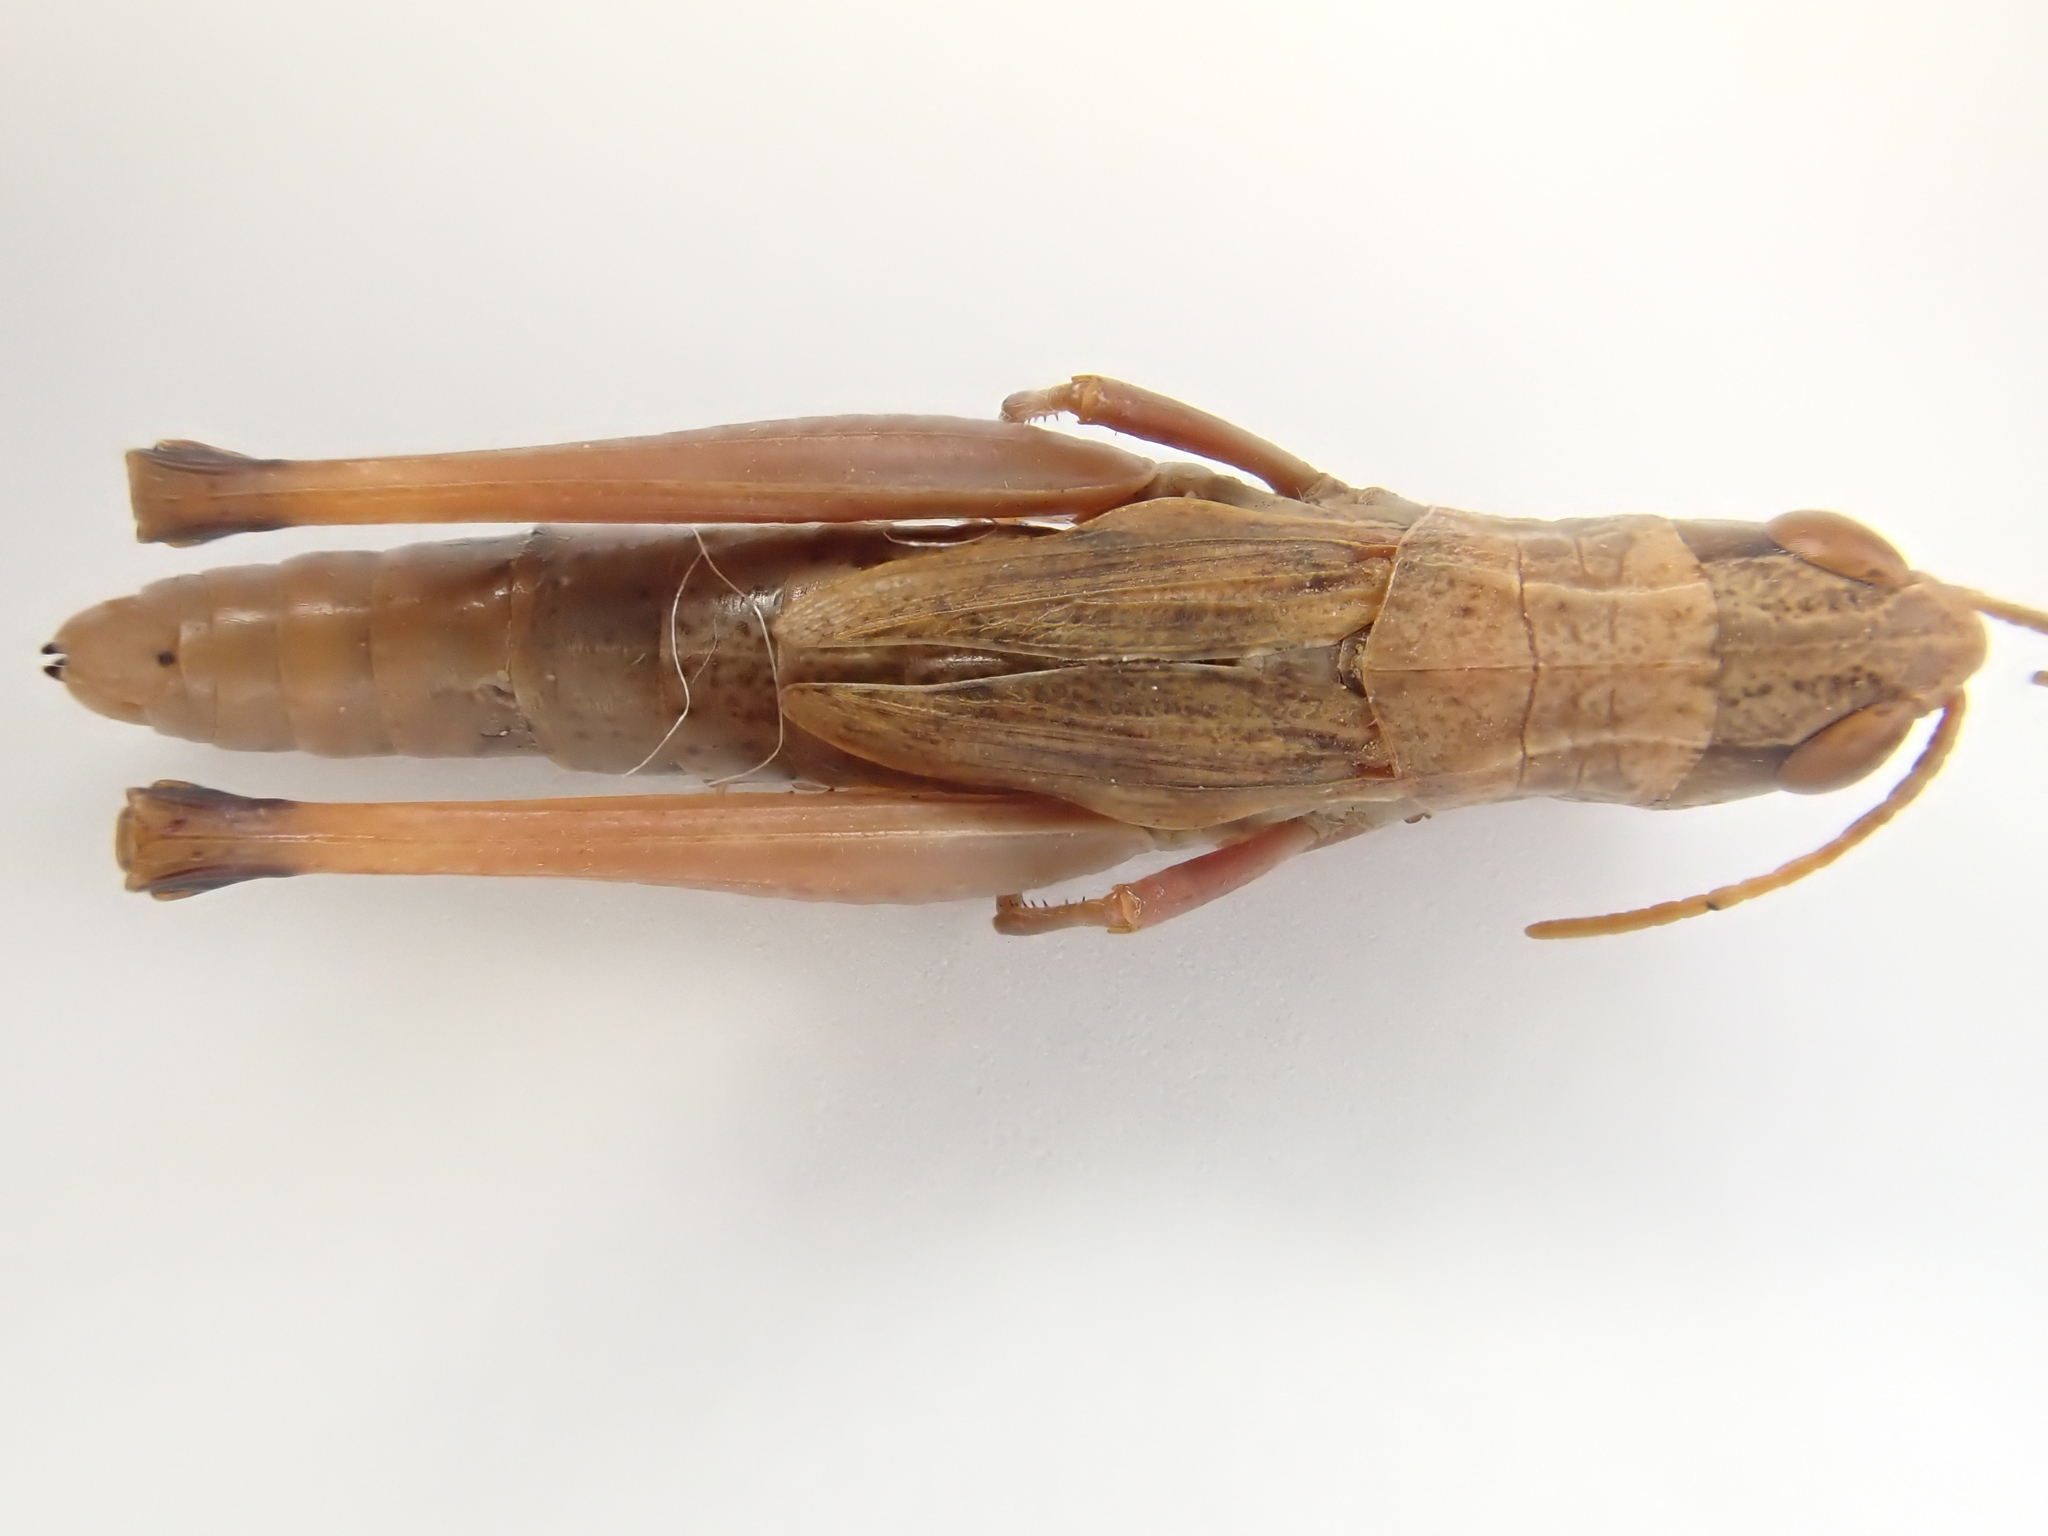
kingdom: Animalia
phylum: Arthropoda
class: Insecta
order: Orthoptera
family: Acrididae
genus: Pseudochorthippus
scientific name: Pseudochorthippus parallelus
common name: Meadow grasshopper
